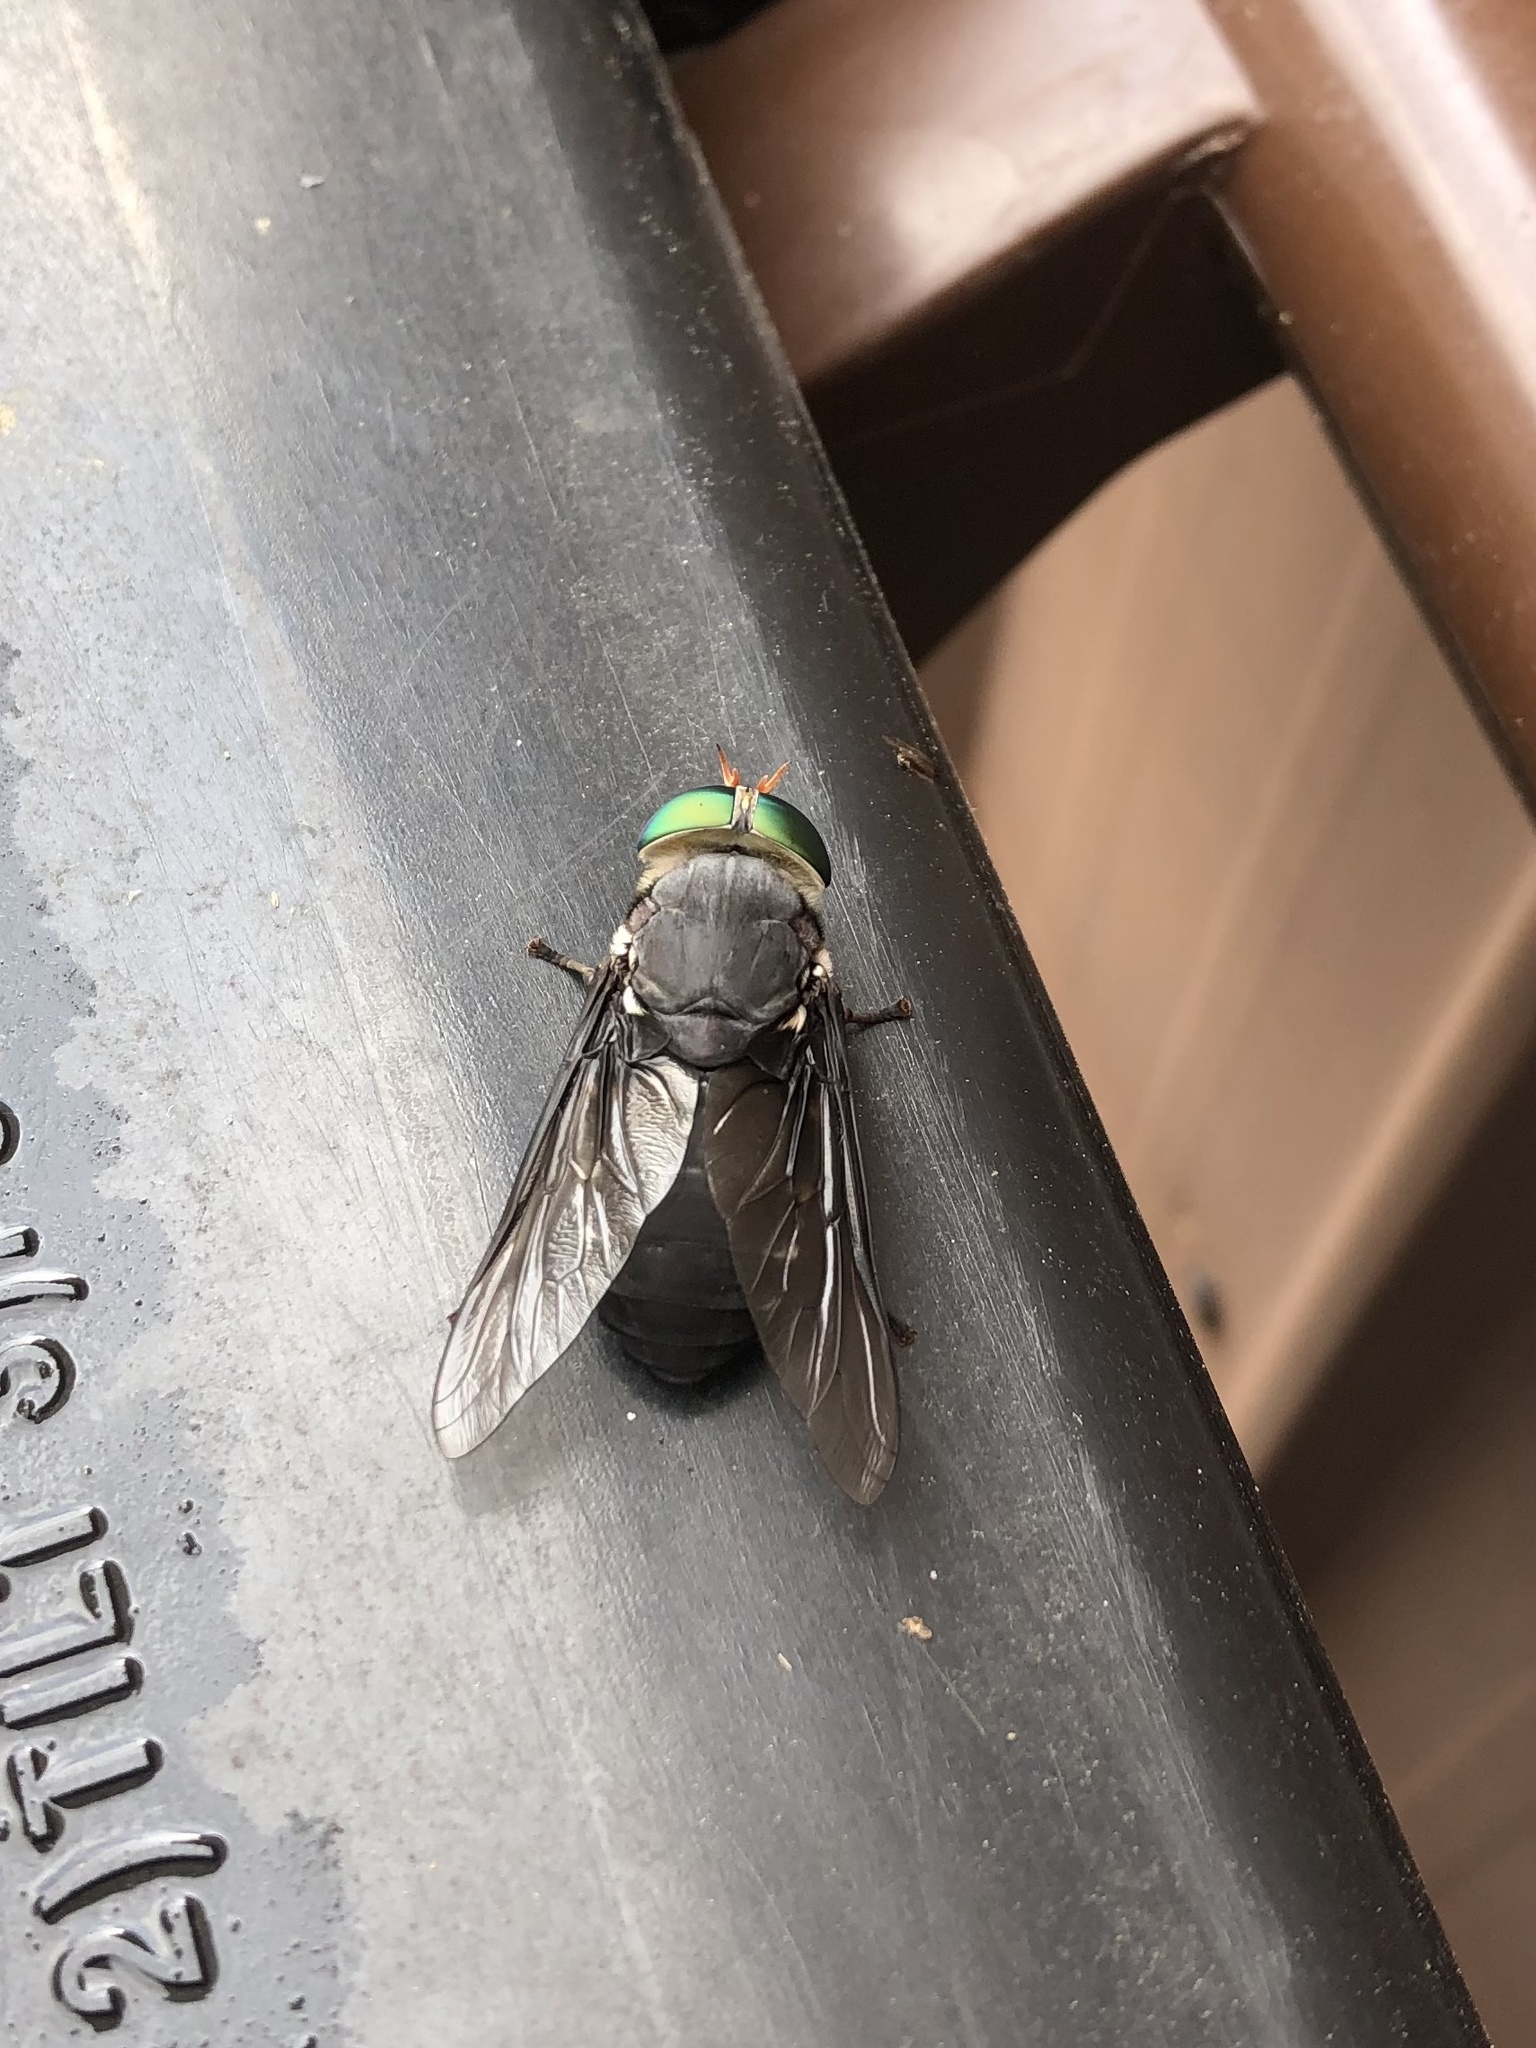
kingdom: Animalia
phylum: Arthropoda
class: Insecta
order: Diptera
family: Tabanidae
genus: Tabanus
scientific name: Tabanus americanus
